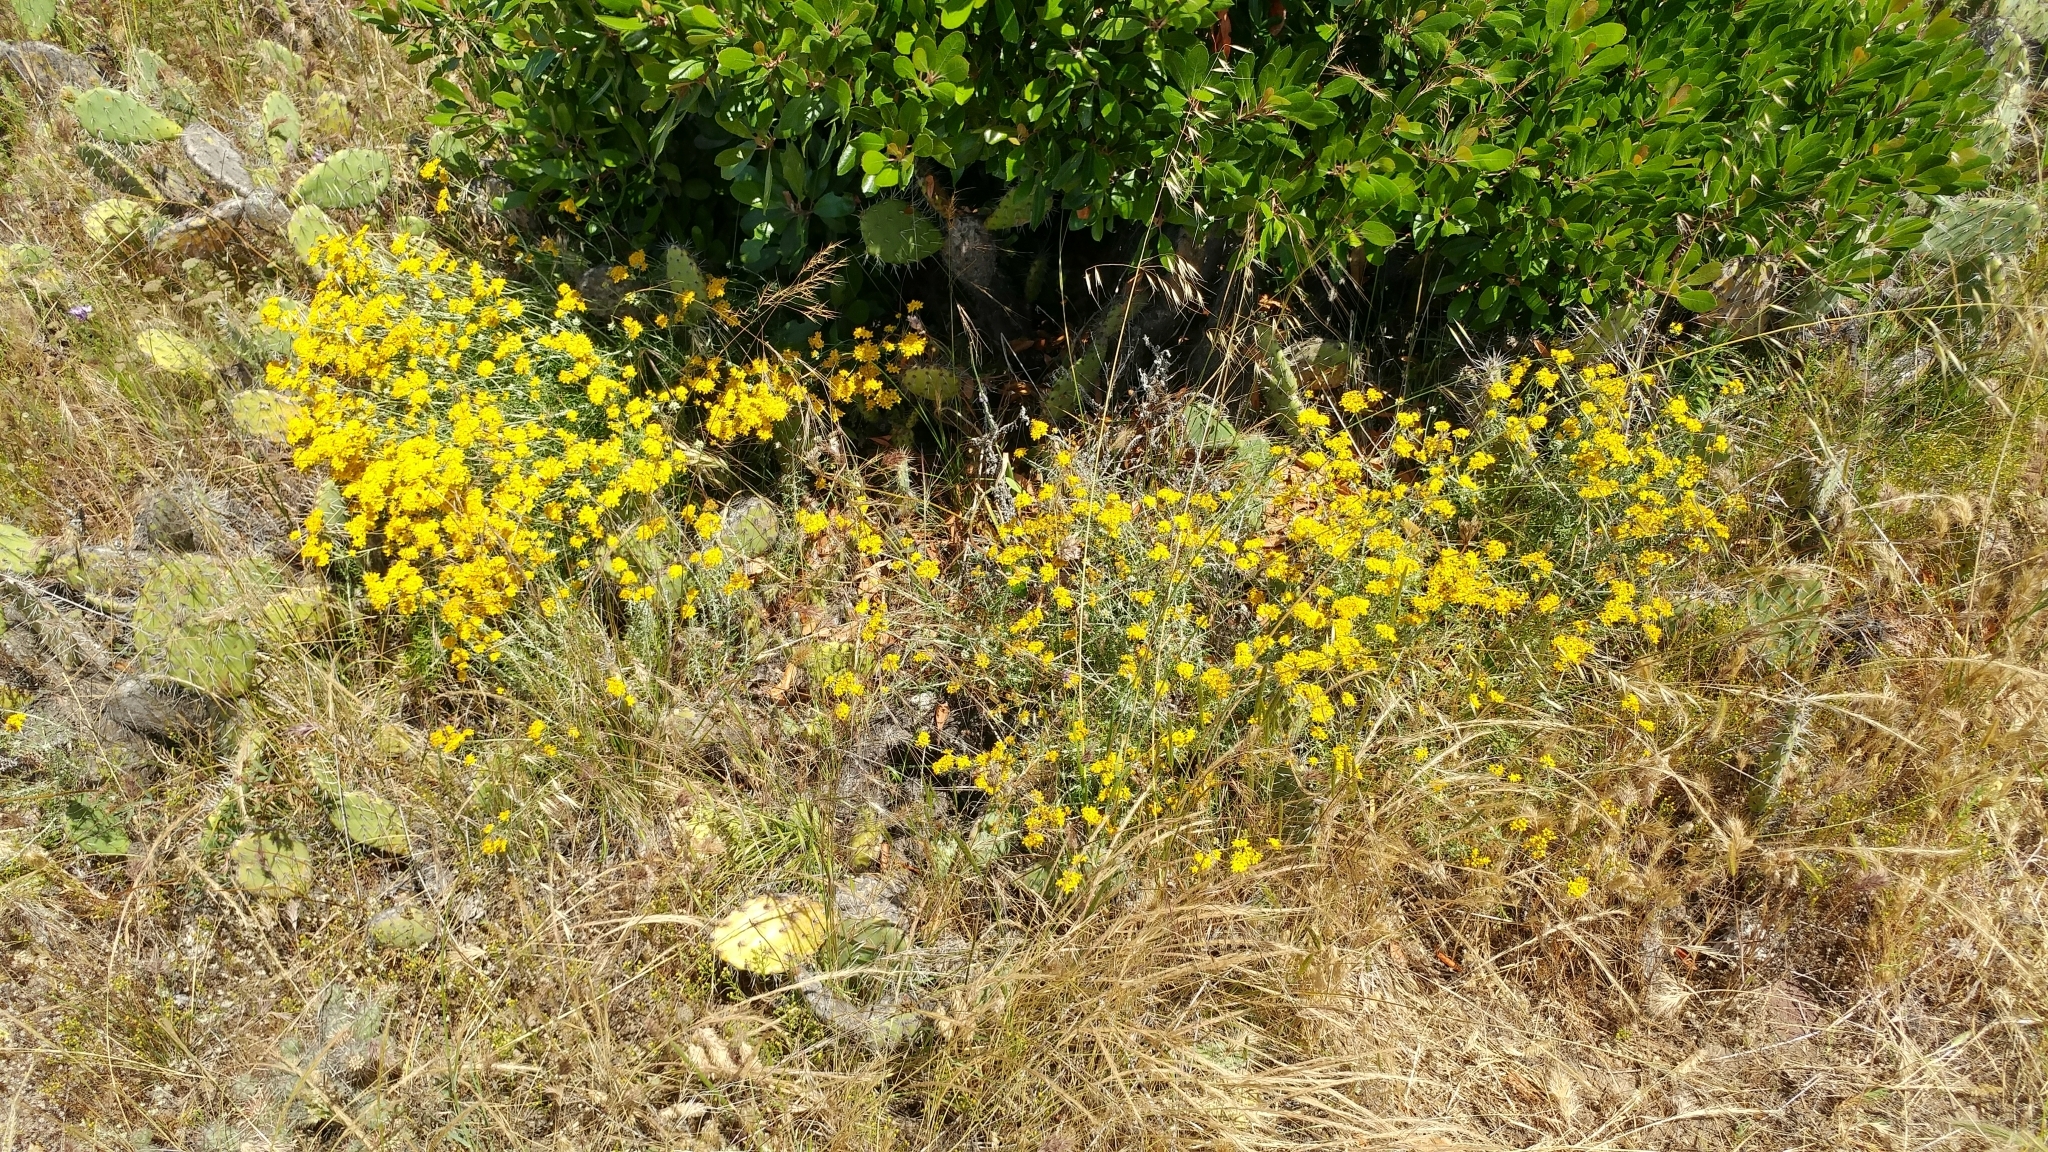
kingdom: Plantae
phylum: Tracheophyta
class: Magnoliopsida
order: Asterales
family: Asteraceae
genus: Eriophyllum
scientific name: Eriophyllum confertiflorum
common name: Golden-yarrow
